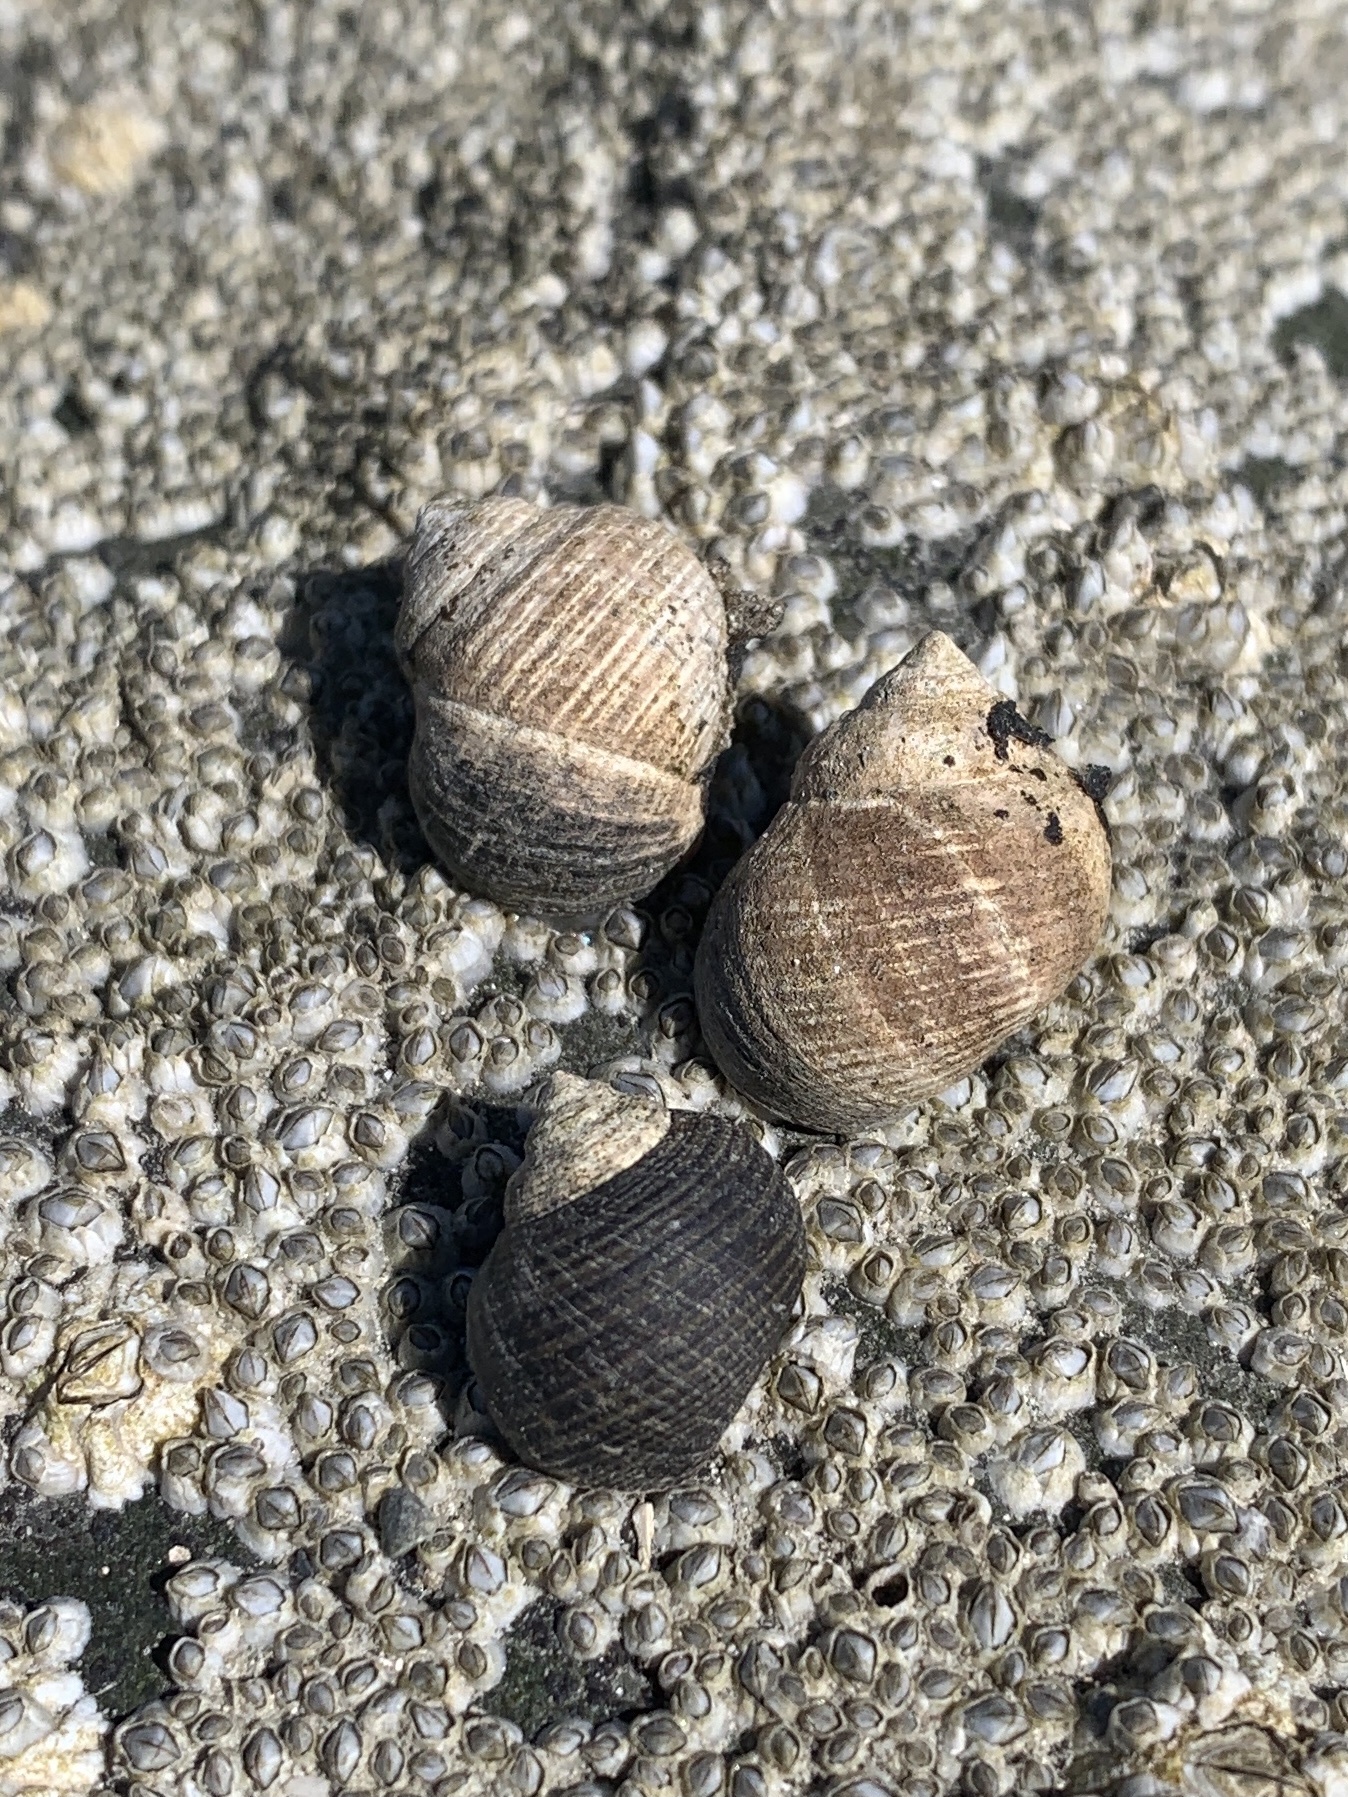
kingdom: Animalia
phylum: Mollusca
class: Gastropoda
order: Littorinimorpha
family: Littorinidae
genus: Littorina
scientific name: Littorina littorea
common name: Common periwinkle
